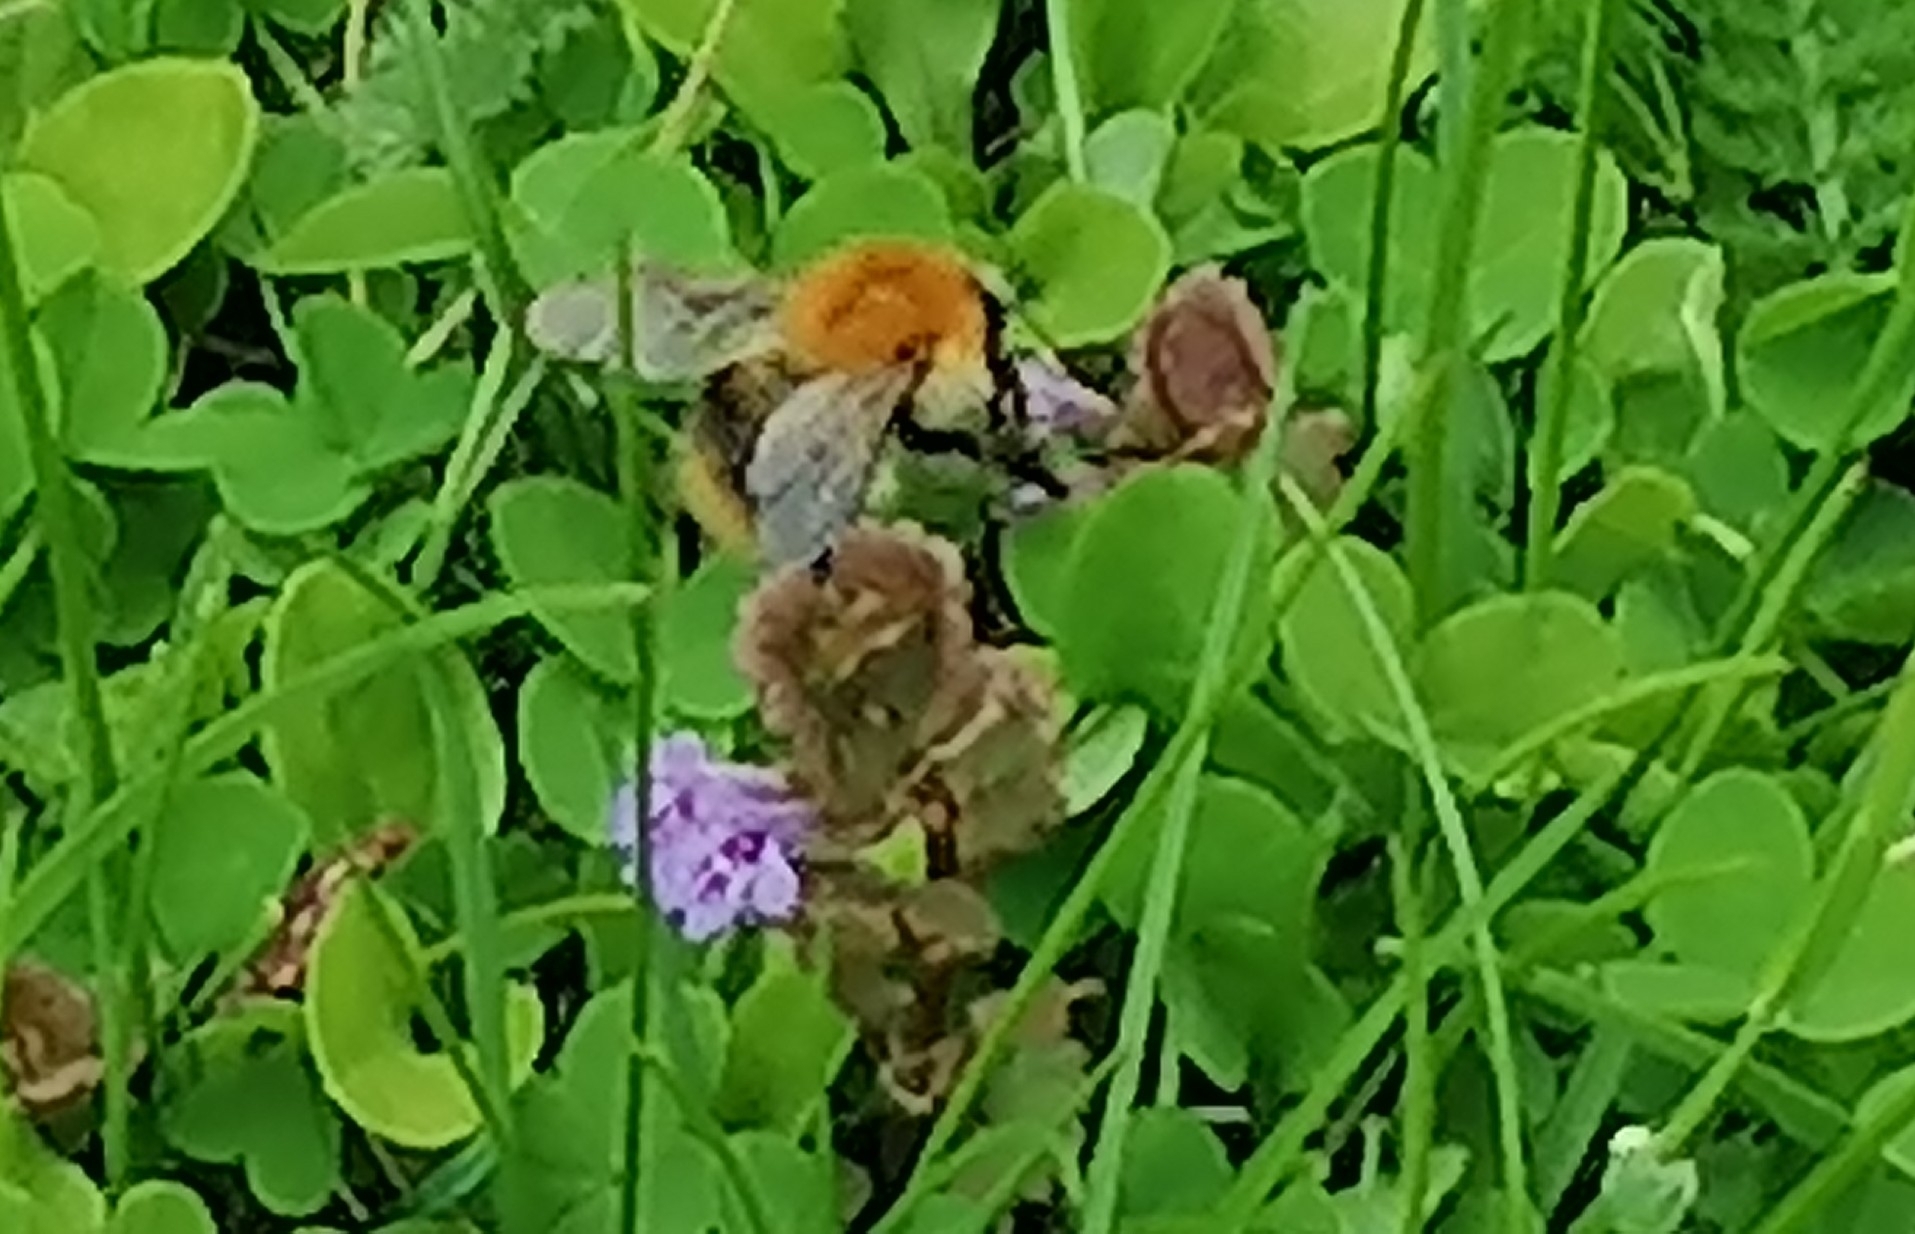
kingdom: Animalia
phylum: Arthropoda
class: Insecta
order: Hymenoptera
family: Apidae
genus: Bombus
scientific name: Bombus pascuorum
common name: Common carder bee
